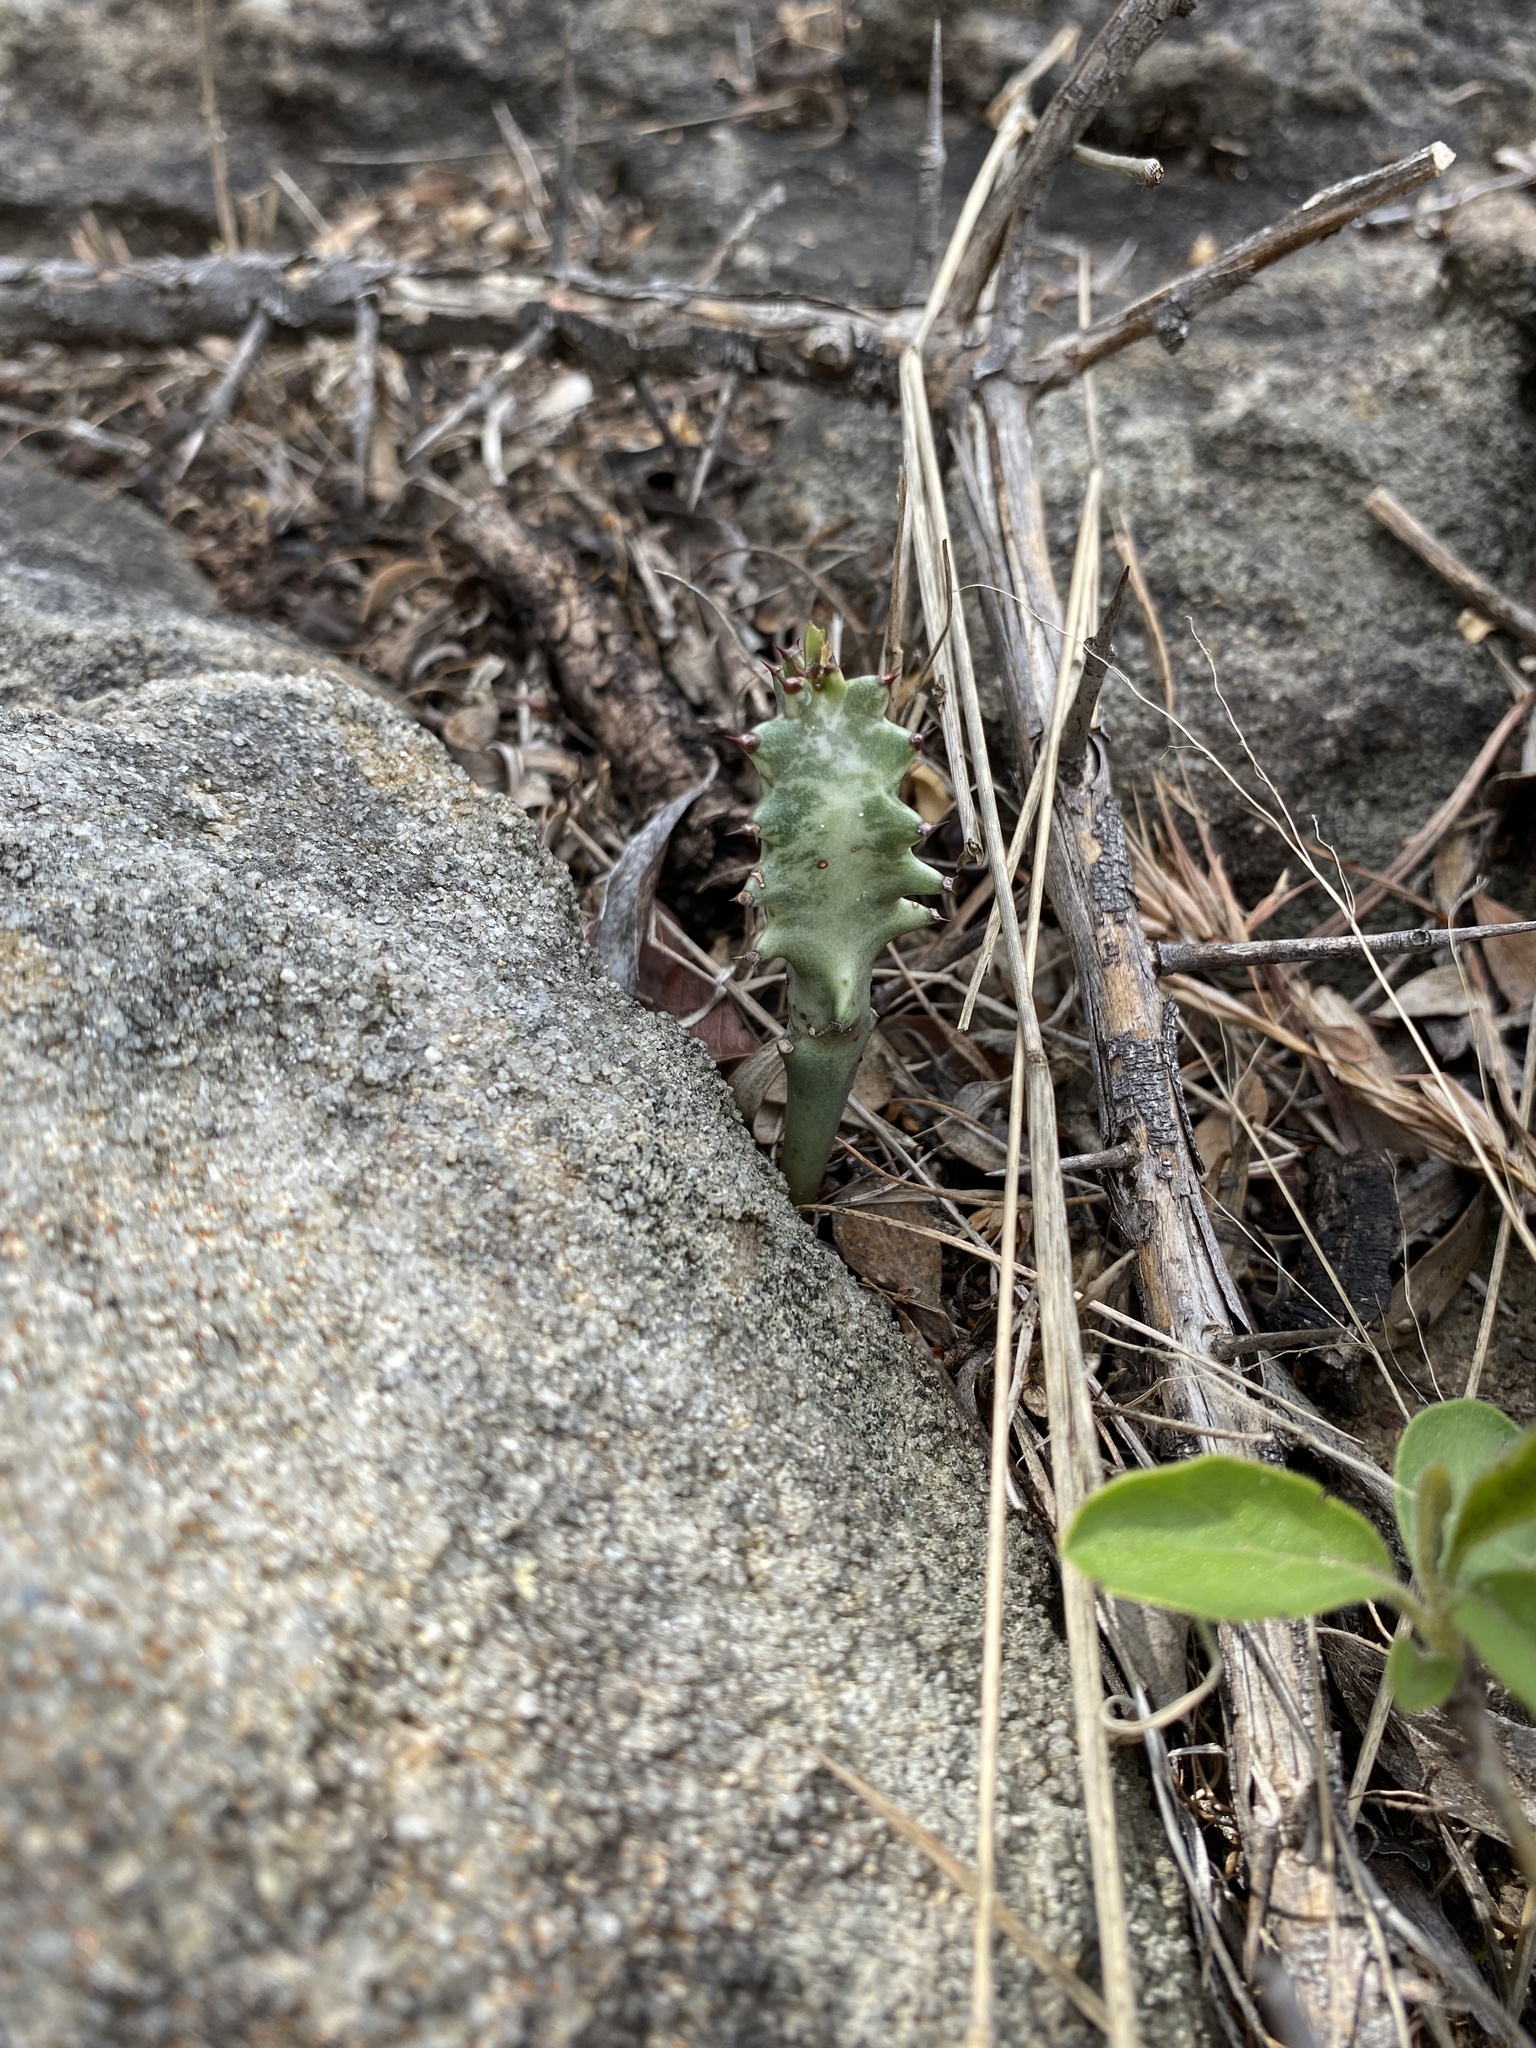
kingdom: Plantae
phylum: Tracheophyta
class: Magnoliopsida
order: Malpighiales
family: Euphorbiaceae
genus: Euphorbia
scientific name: Euphorbia ingens
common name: Cactus spurge
